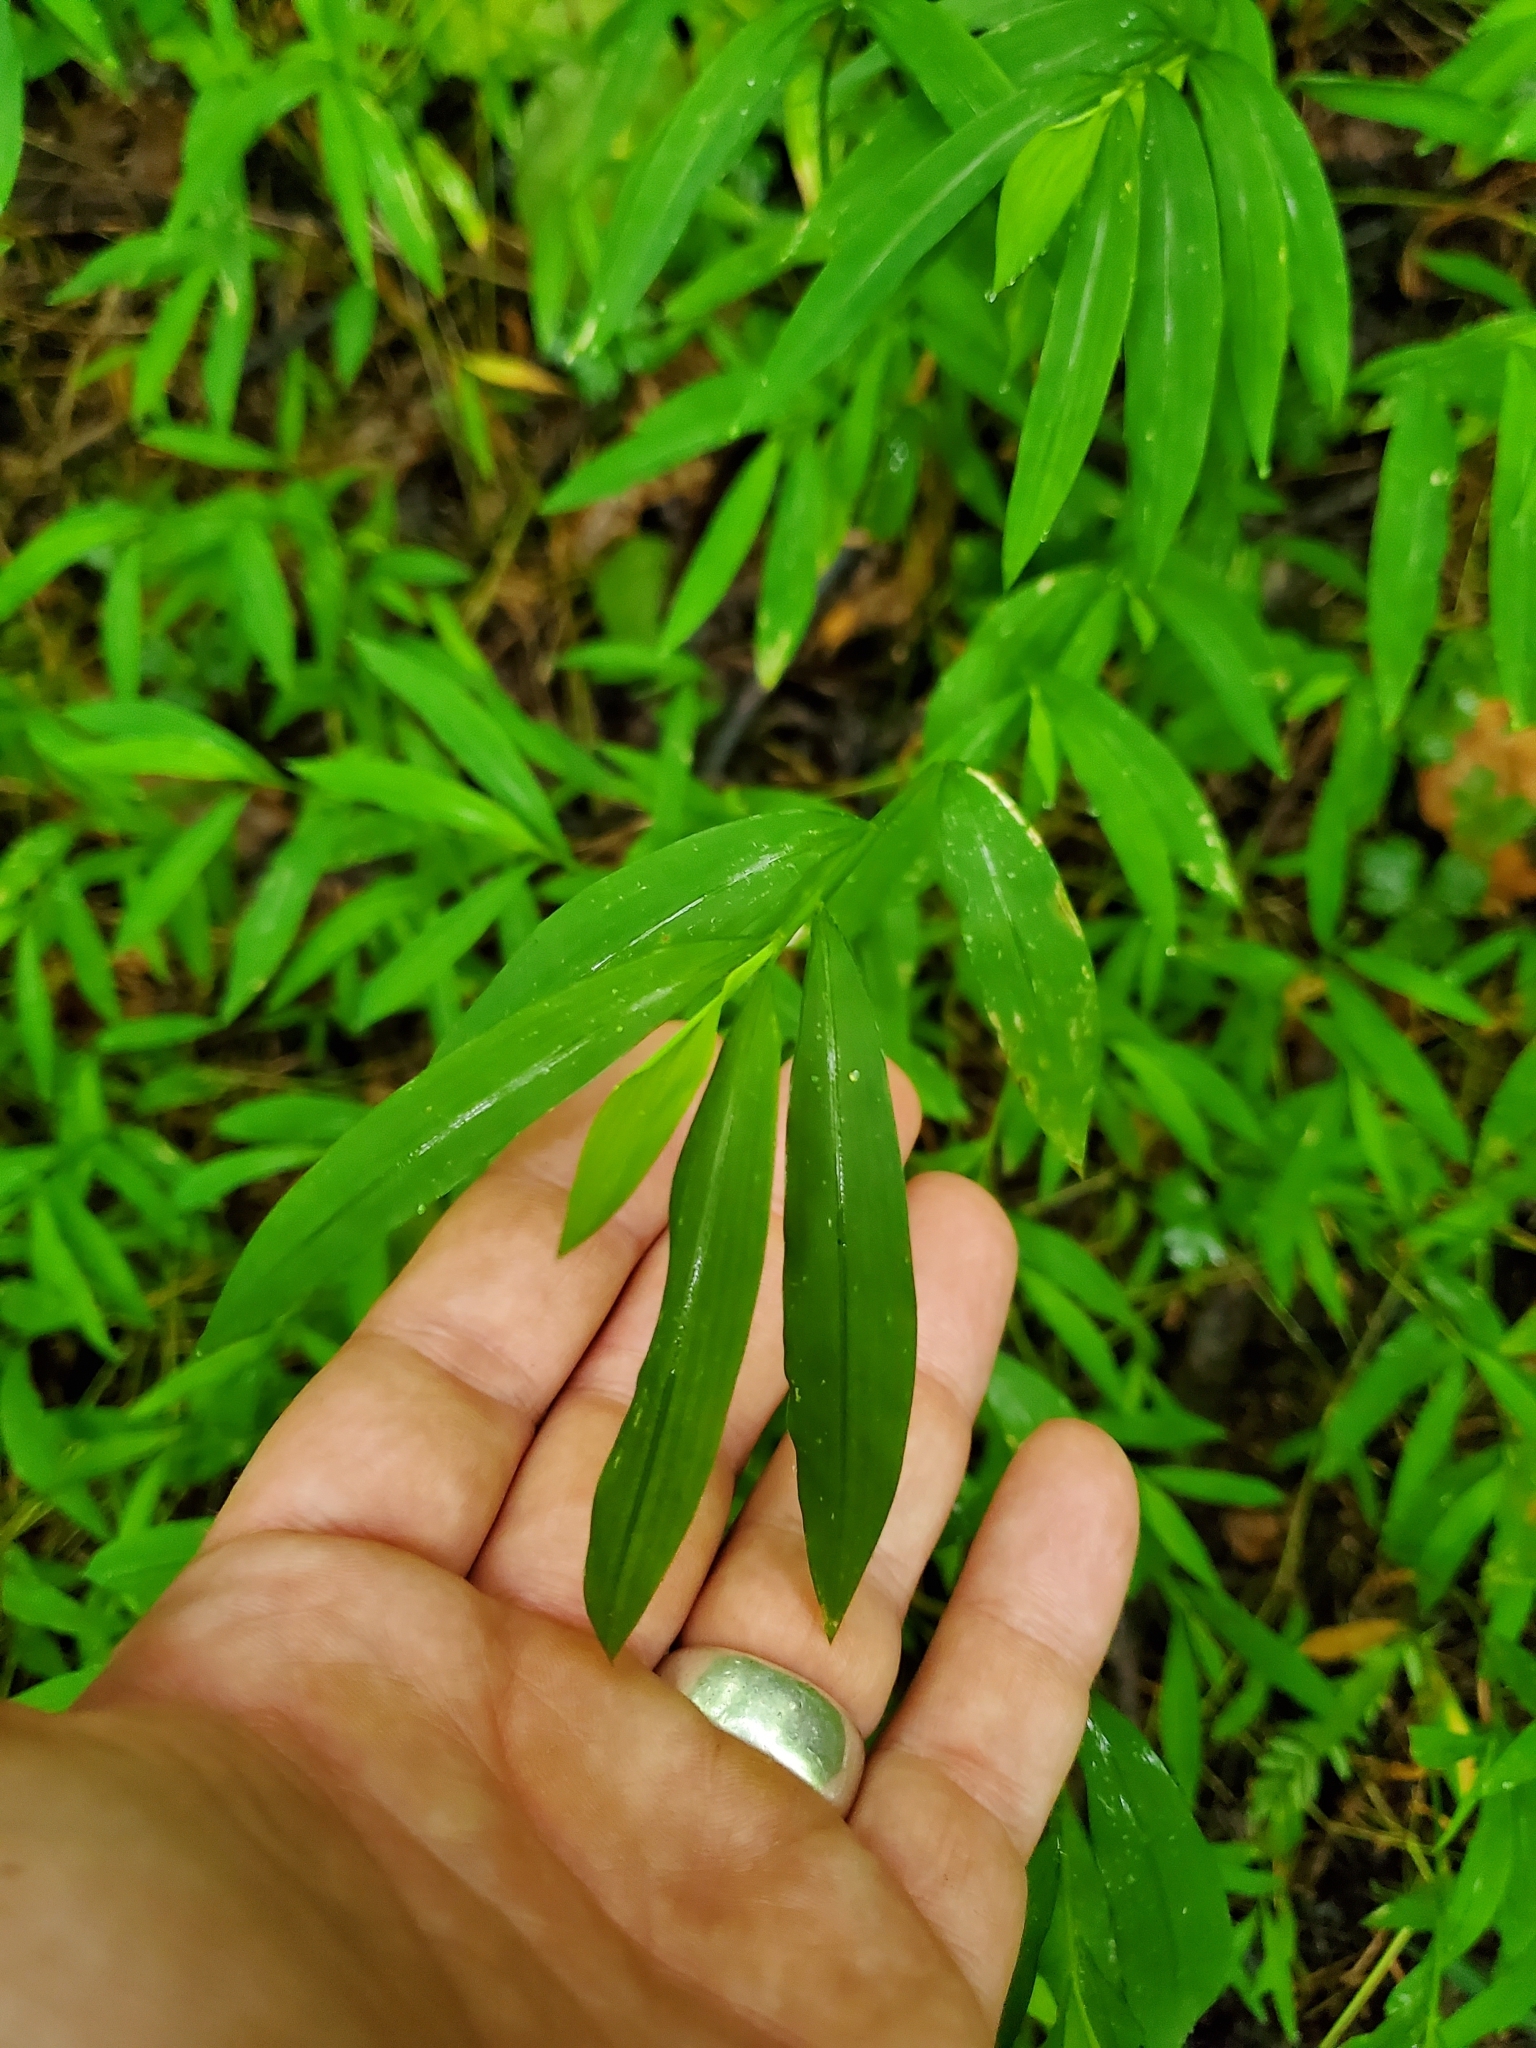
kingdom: Plantae
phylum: Tracheophyta
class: Liliopsida
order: Poales
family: Poaceae
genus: Microstegium
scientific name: Microstegium vimineum
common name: Japanese stiltgrass
